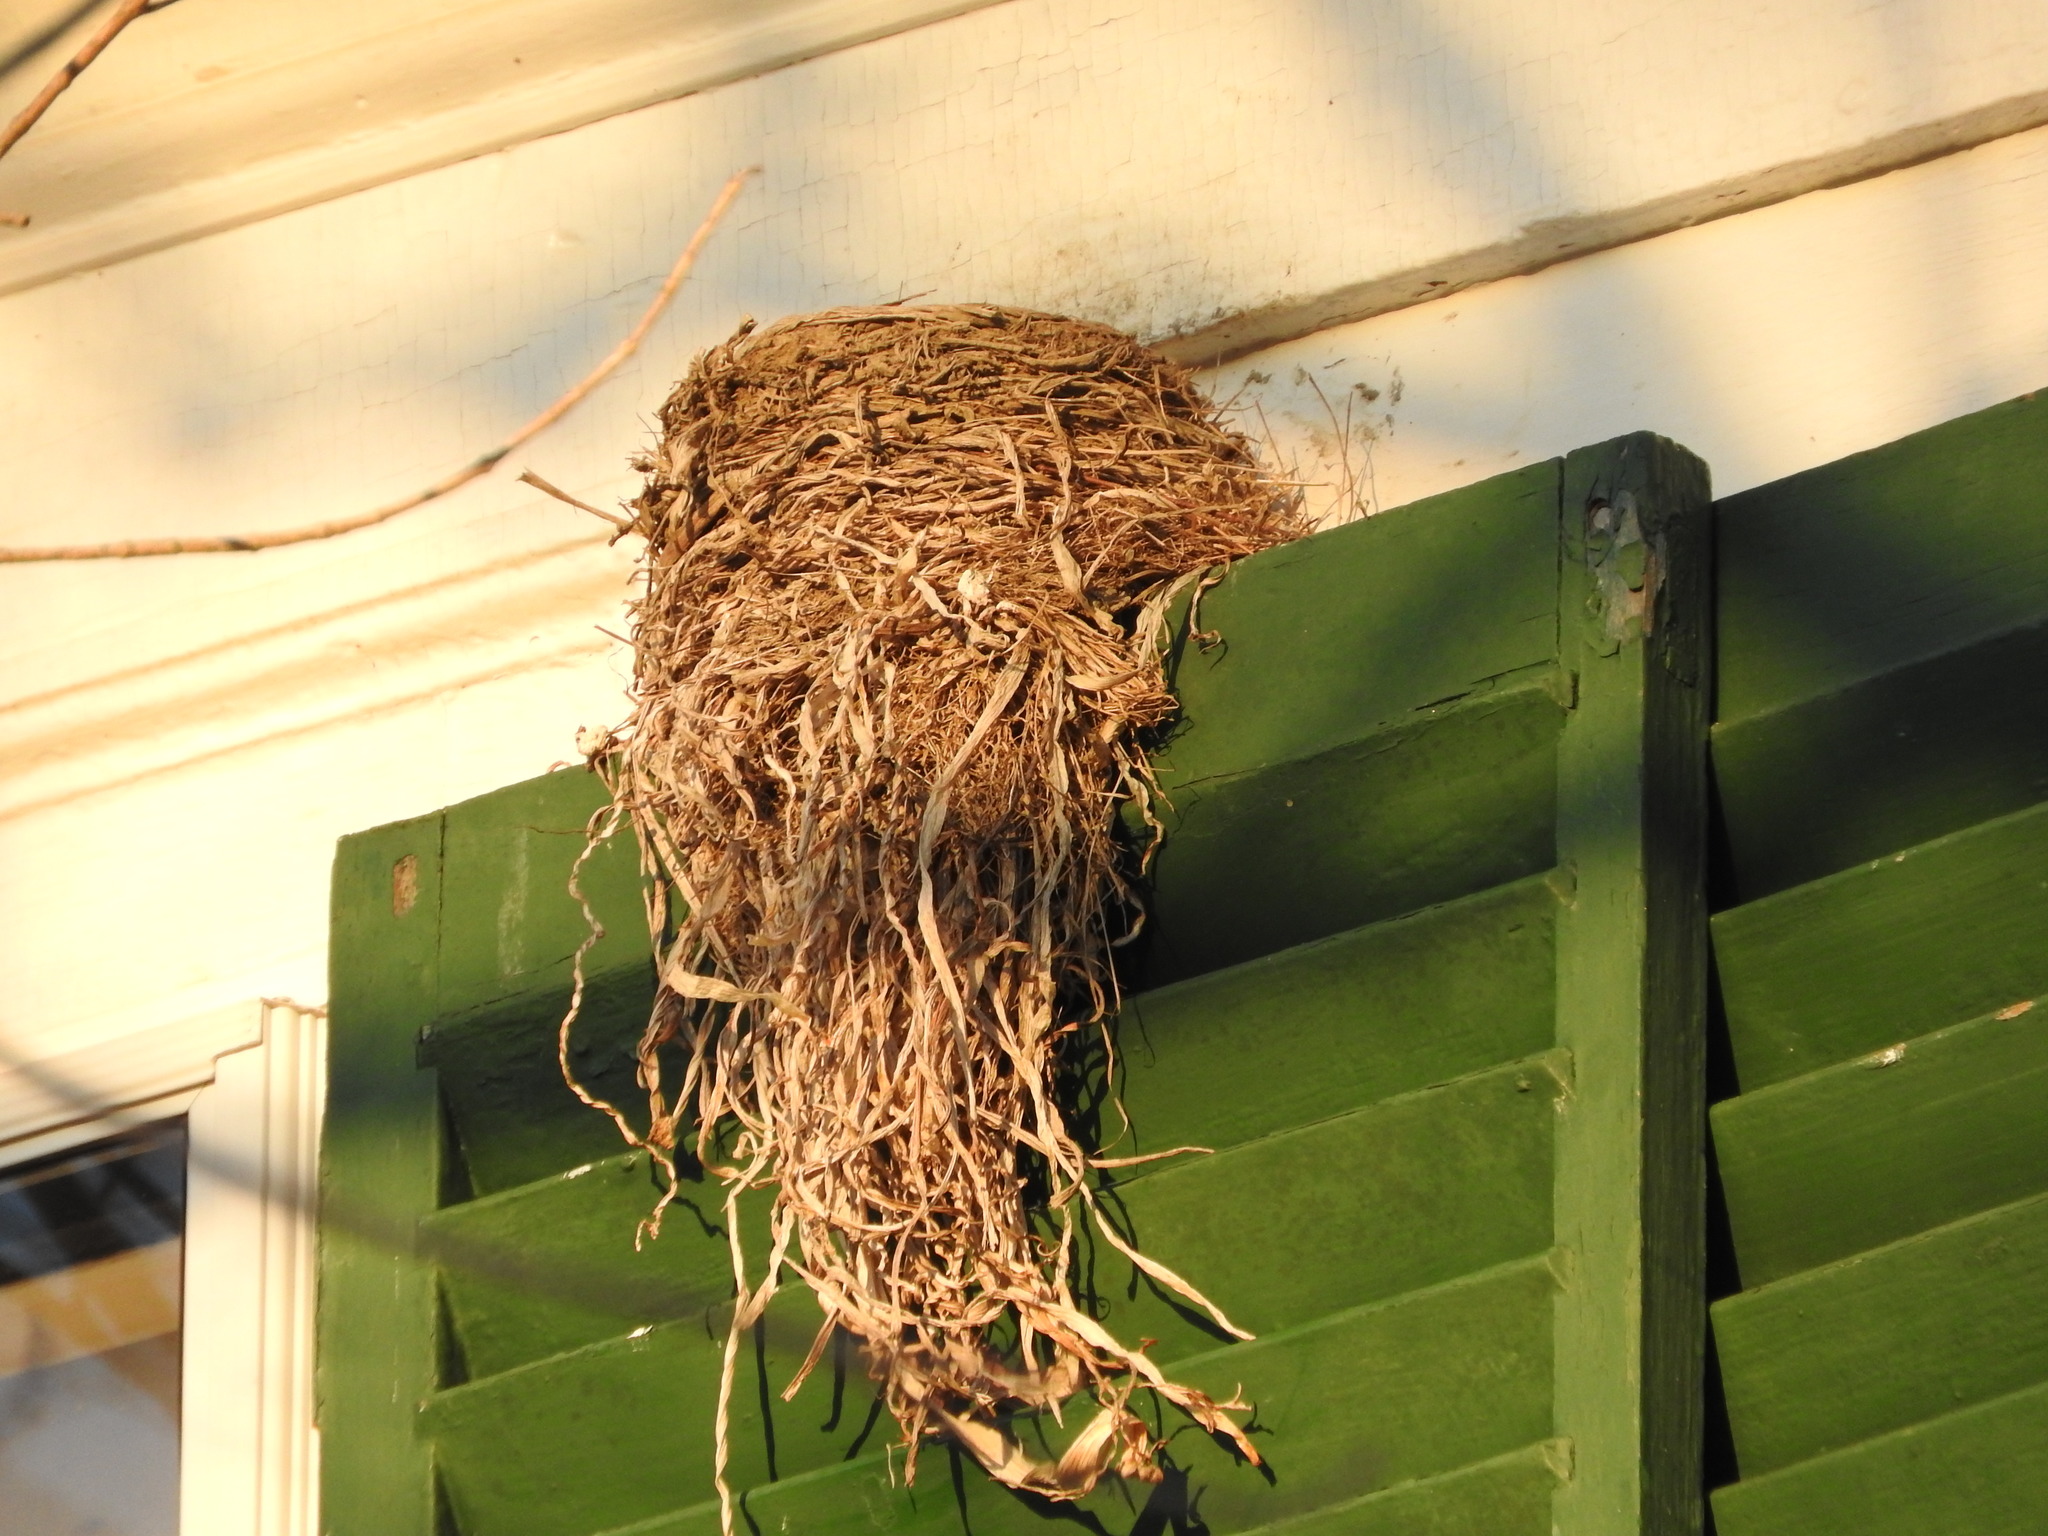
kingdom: Animalia
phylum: Chordata
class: Aves
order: Passeriformes
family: Turdidae
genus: Turdus
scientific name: Turdus migratorius
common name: American robin
